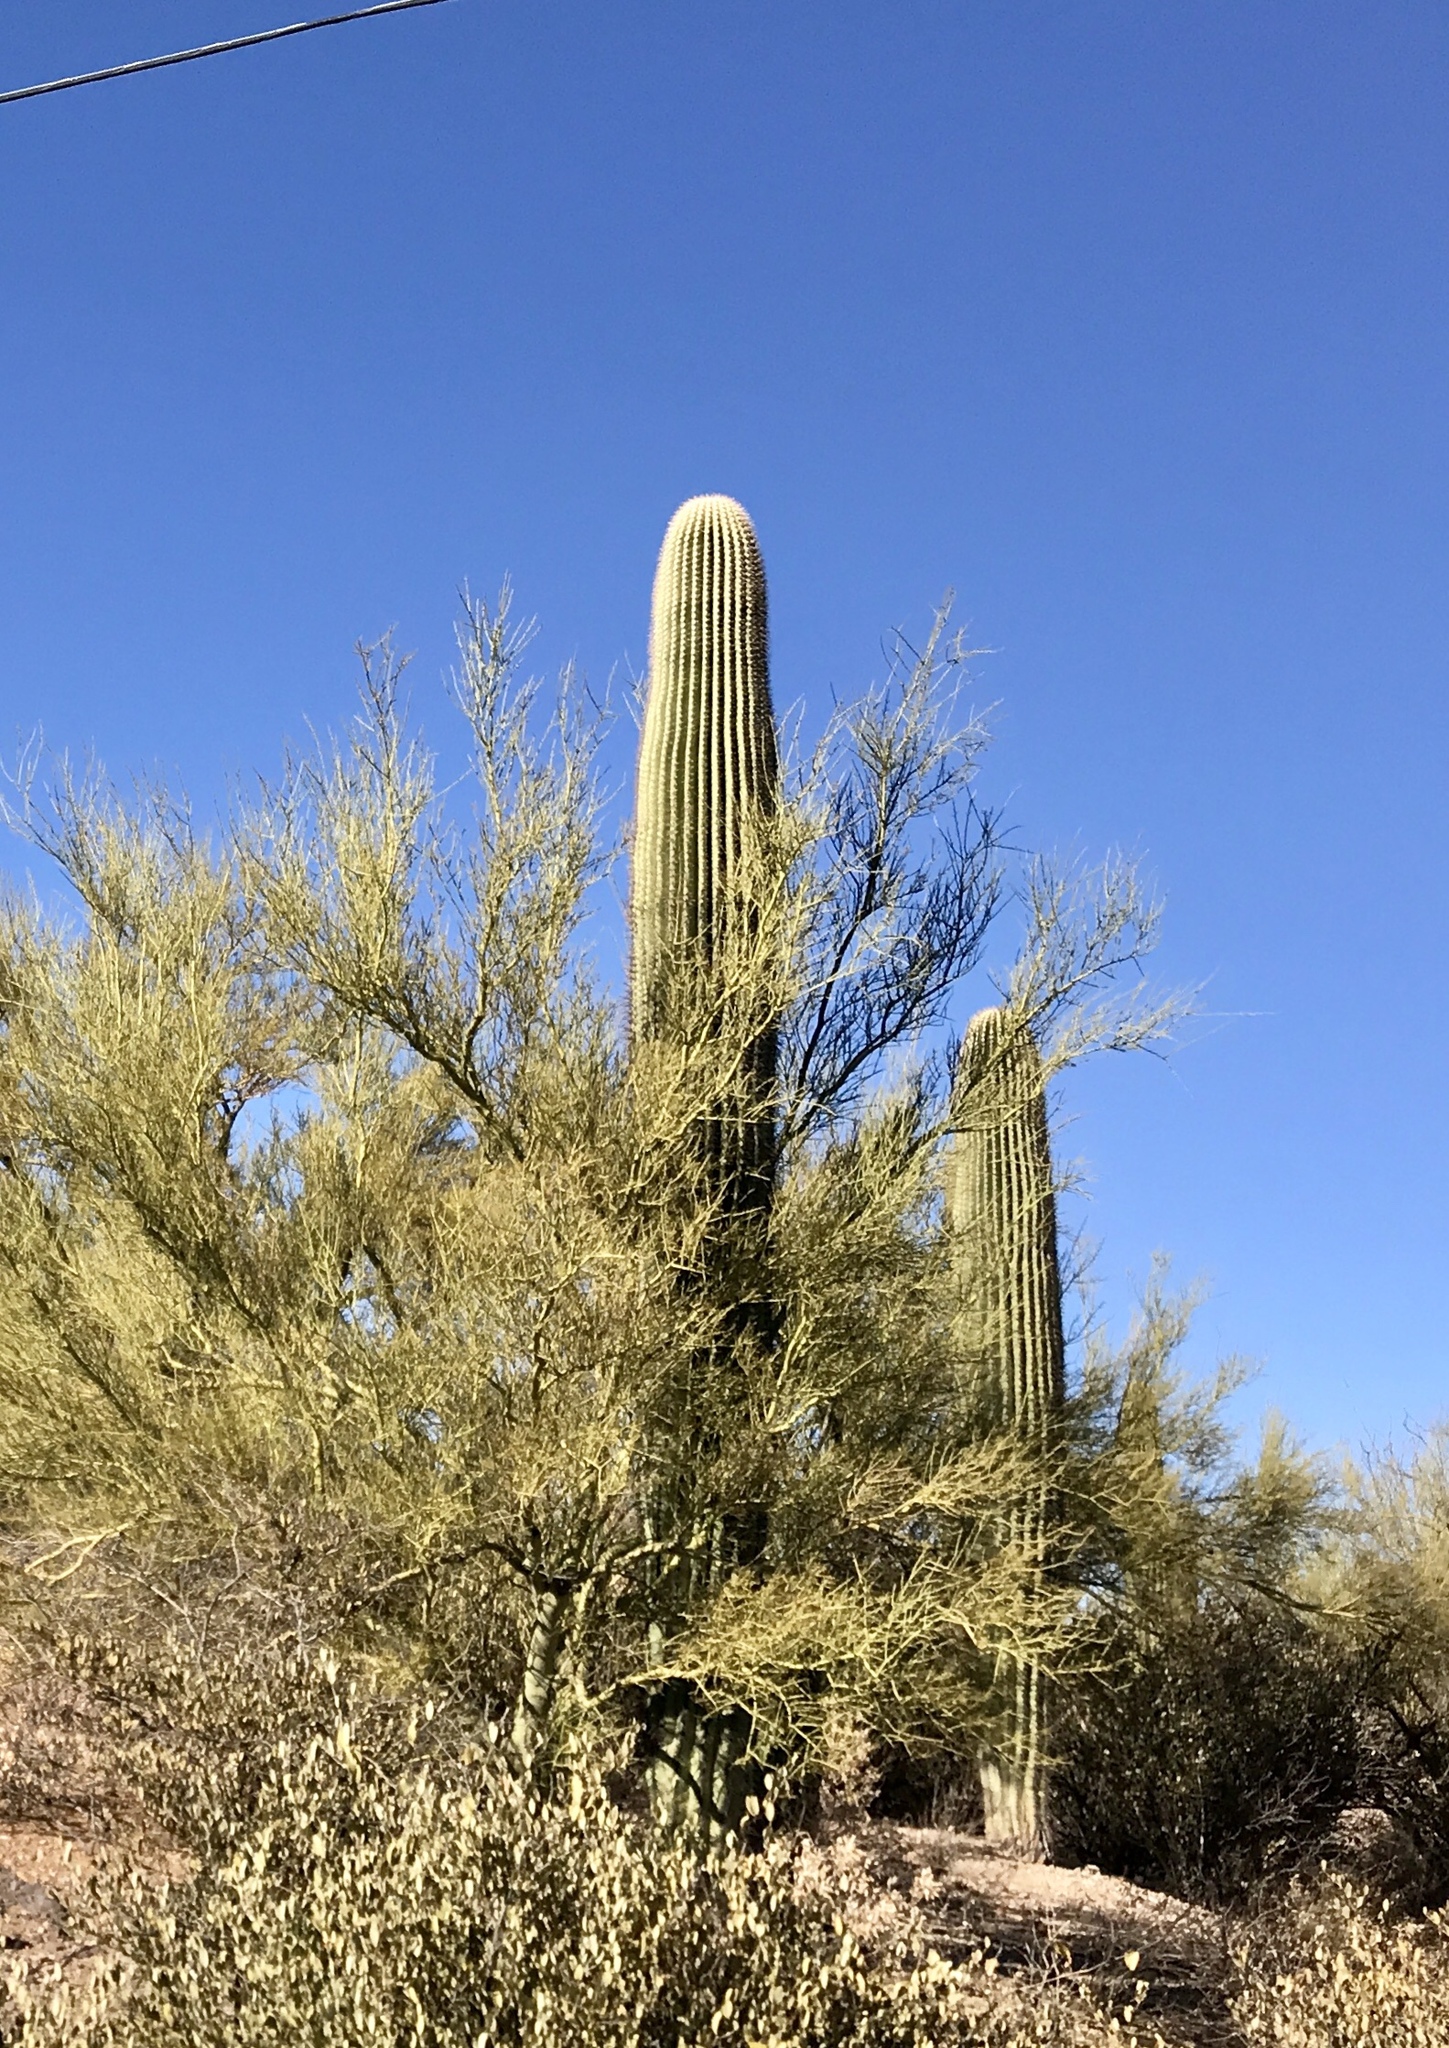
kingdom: Plantae
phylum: Tracheophyta
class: Magnoliopsida
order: Caryophyllales
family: Cactaceae
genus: Carnegiea
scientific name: Carnegiea gigantea
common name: Saguaro
